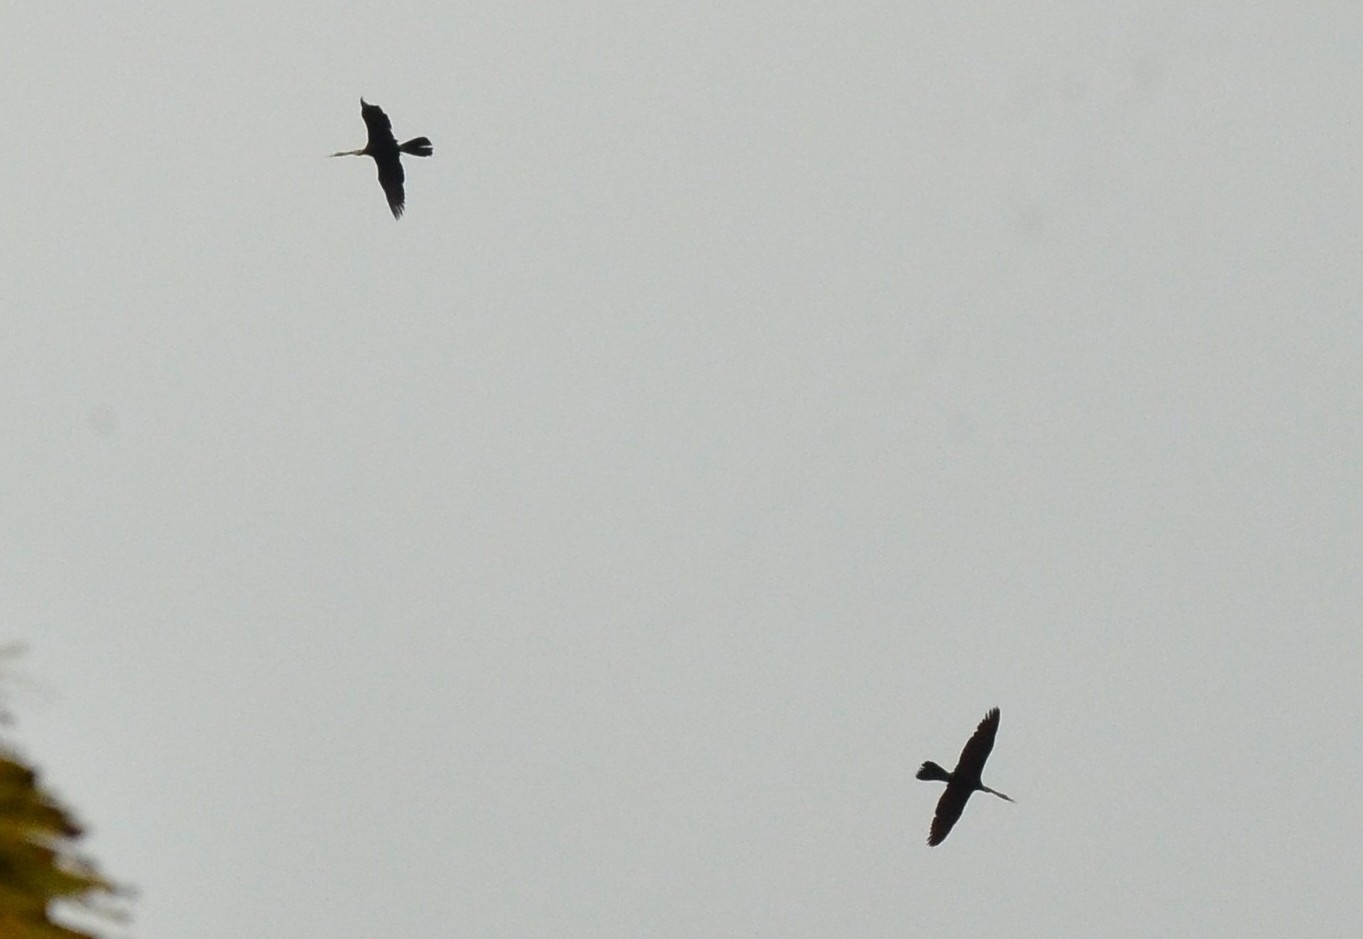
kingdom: Animalia
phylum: Chordata
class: Aves
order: Suliformes
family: Anhingidae
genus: Anhinga
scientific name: Anhinga melanogaster
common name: Oriental darter
